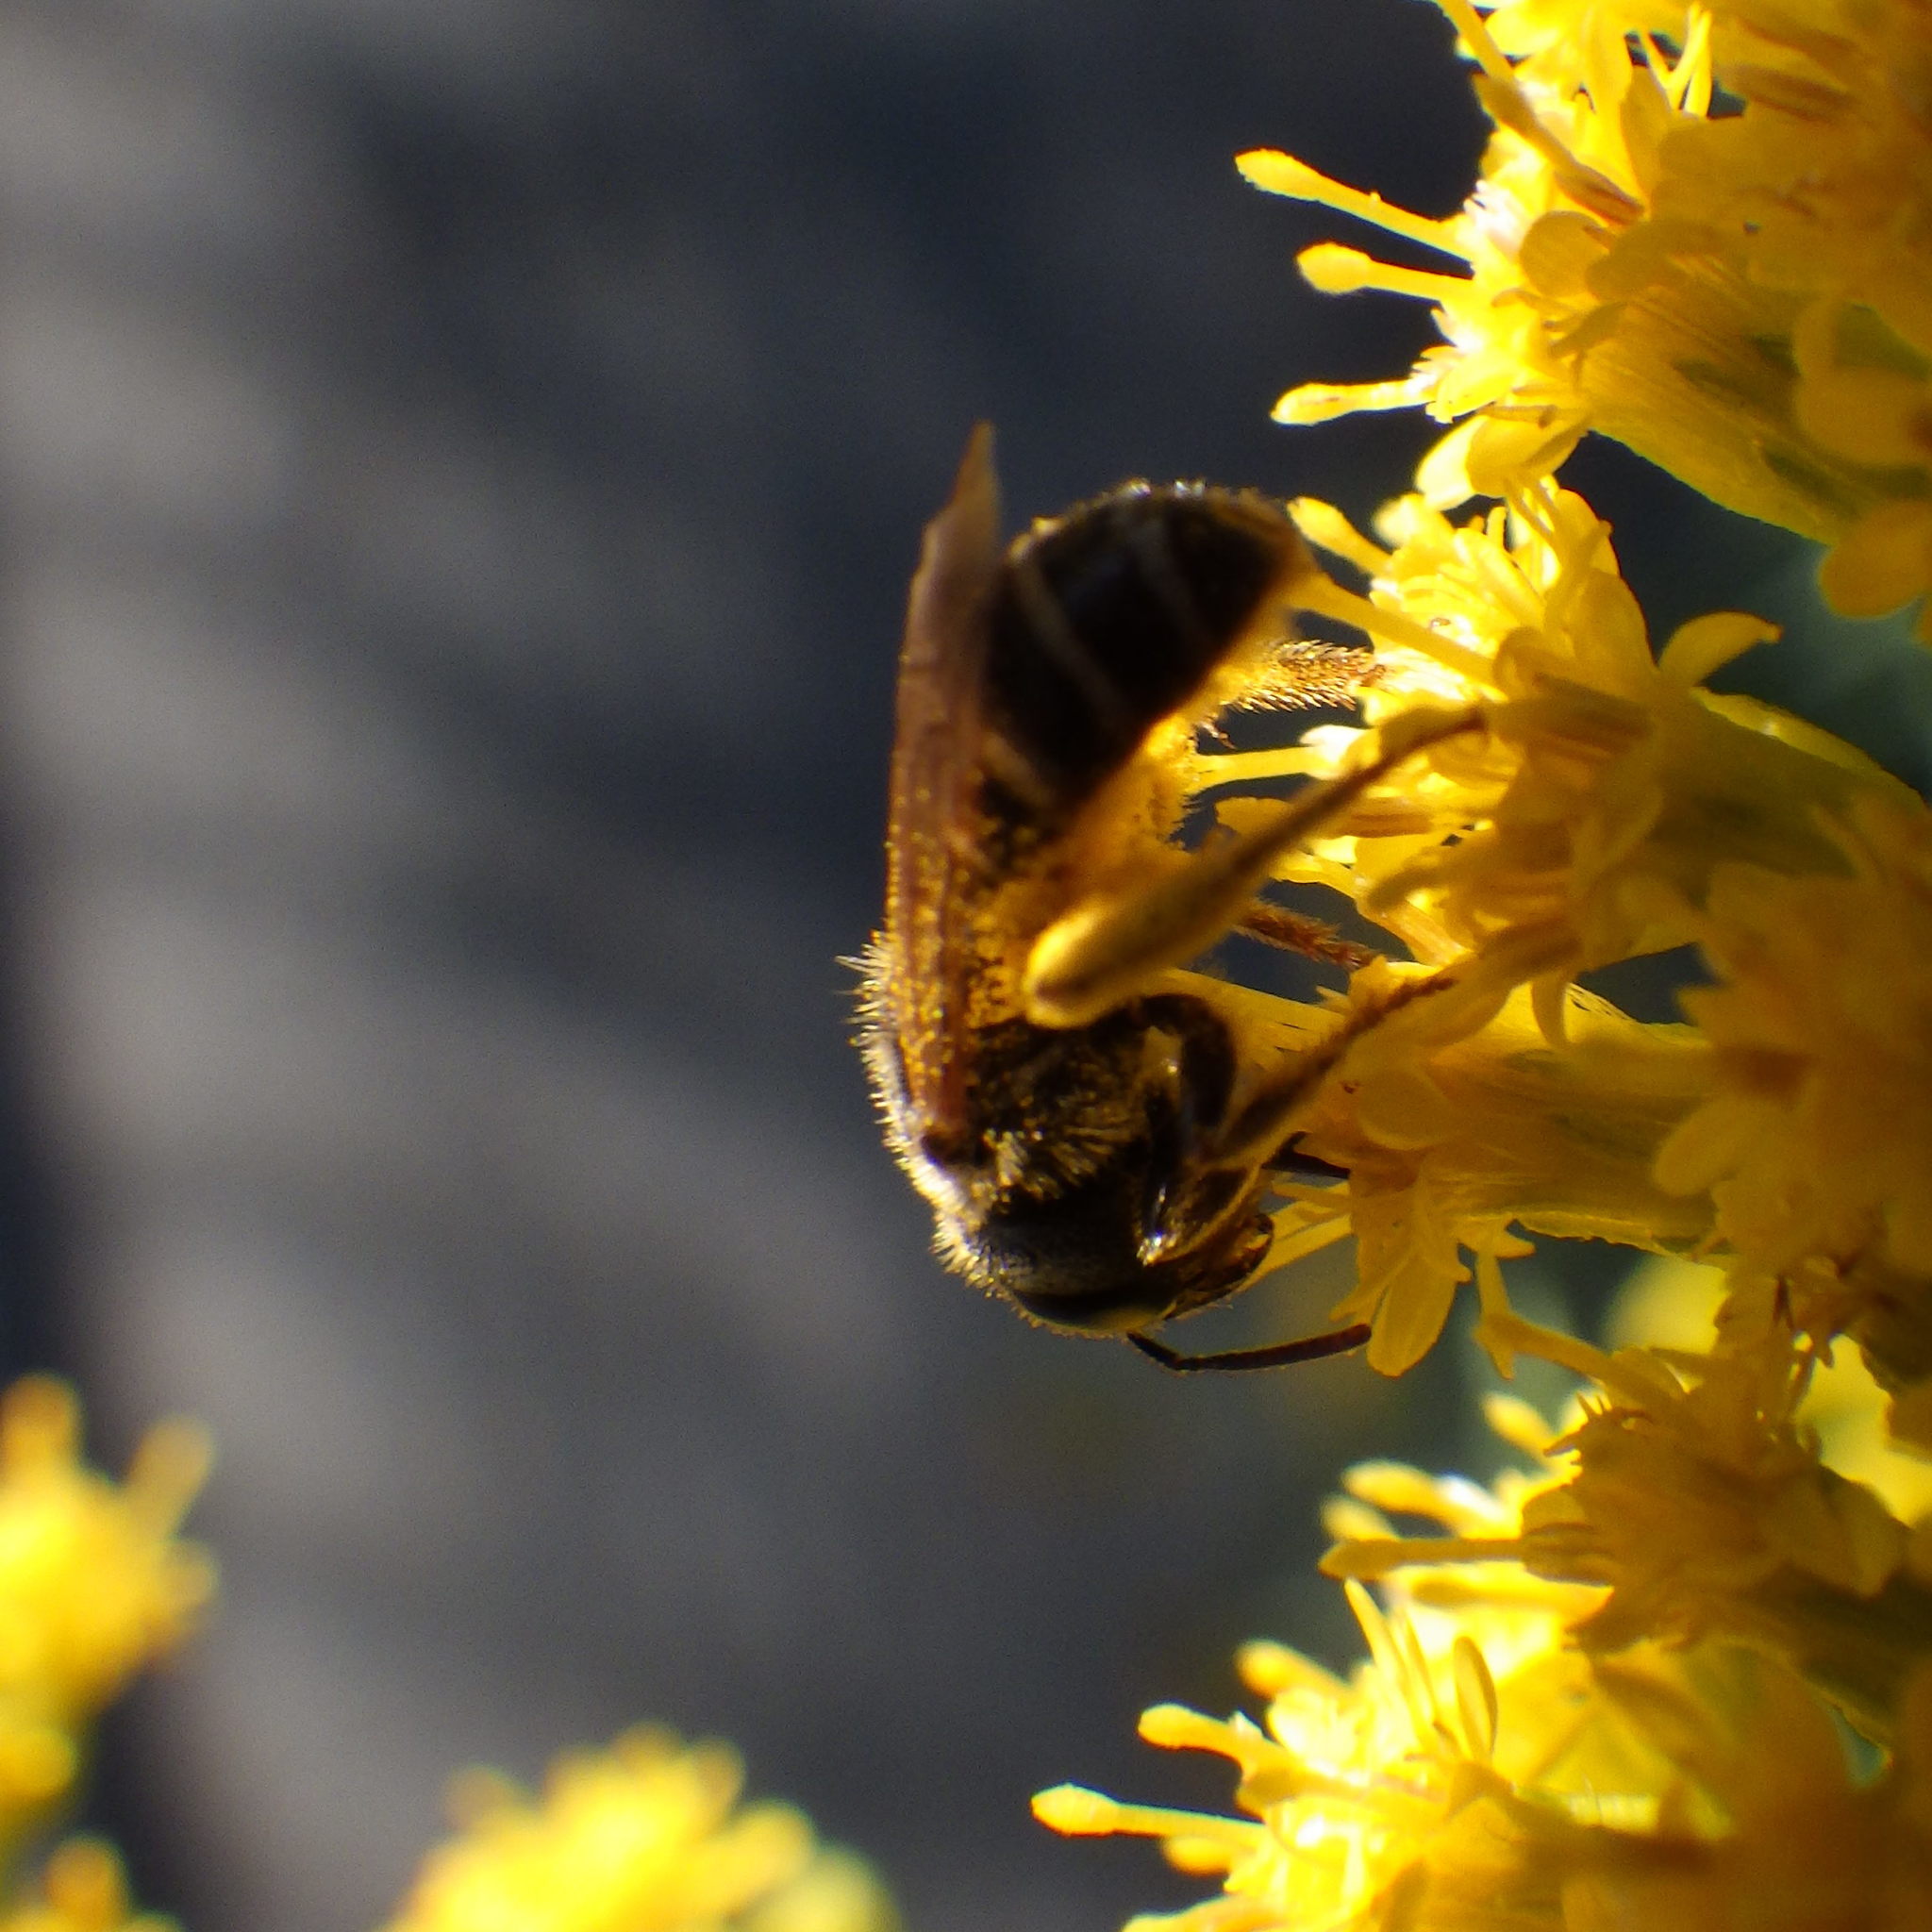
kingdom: Animalia
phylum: Arthropoda
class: Insecta
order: Hymenoptera
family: Halictidae
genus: Halictus
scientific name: Halictus ligatus
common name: Ligated furrow bee
